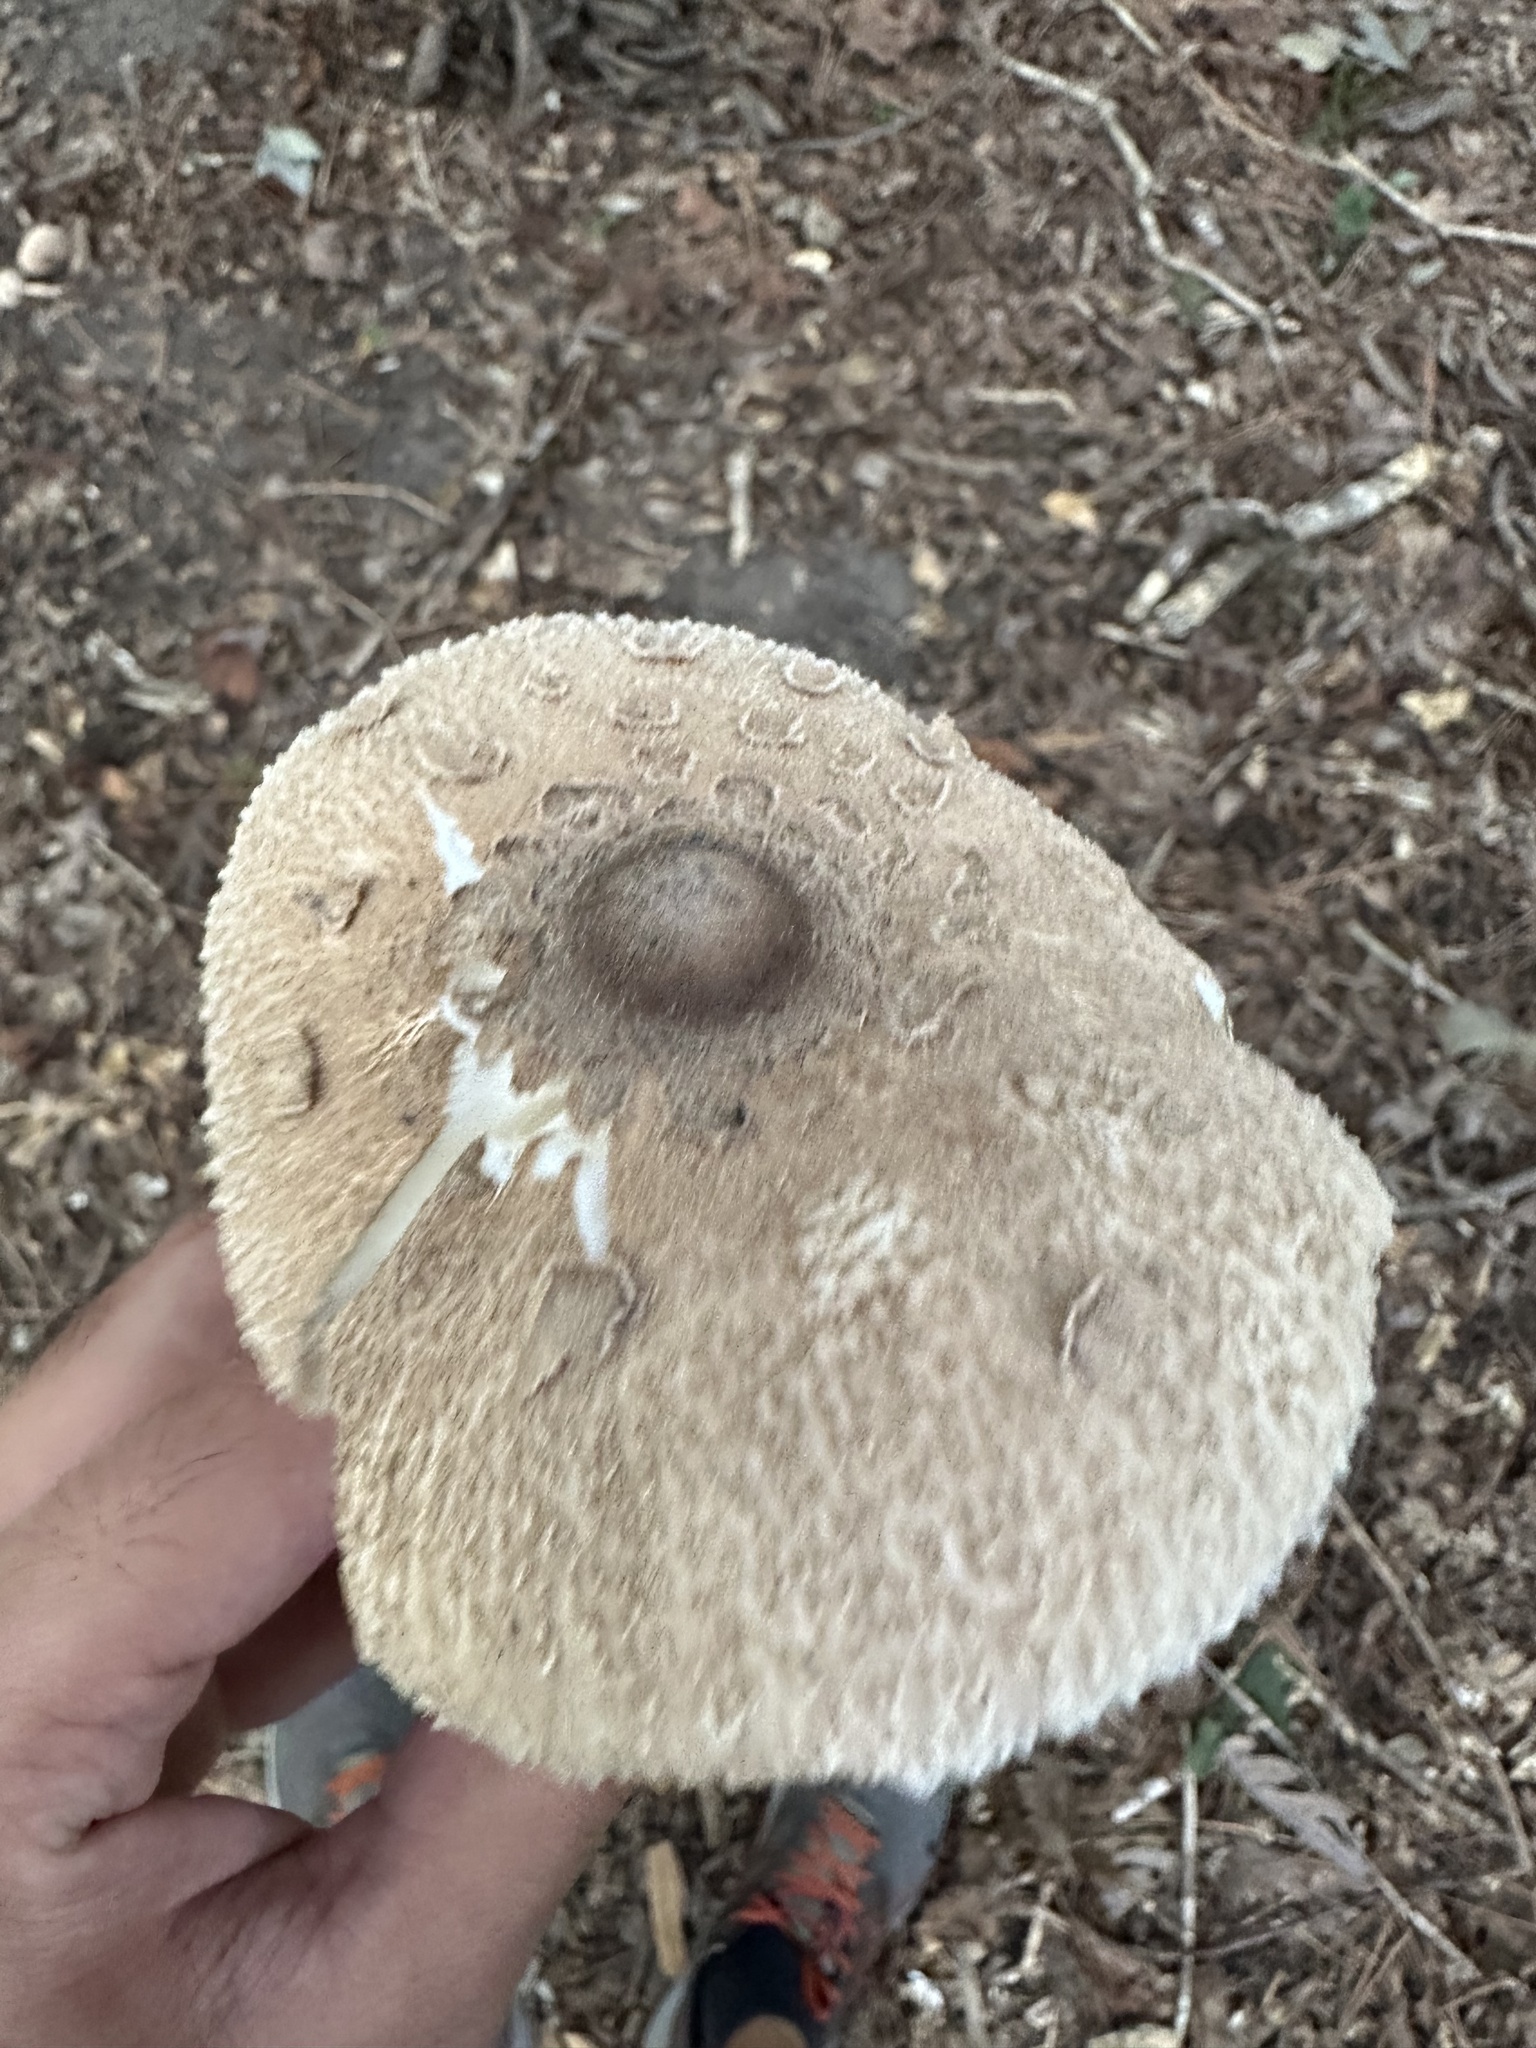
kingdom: Fungi
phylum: Basidiomycota
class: Agaricomycetes
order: Agaricales
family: Agaricaceae
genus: Macrolepiota
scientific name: Macrolepiota procera
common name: Parasol
